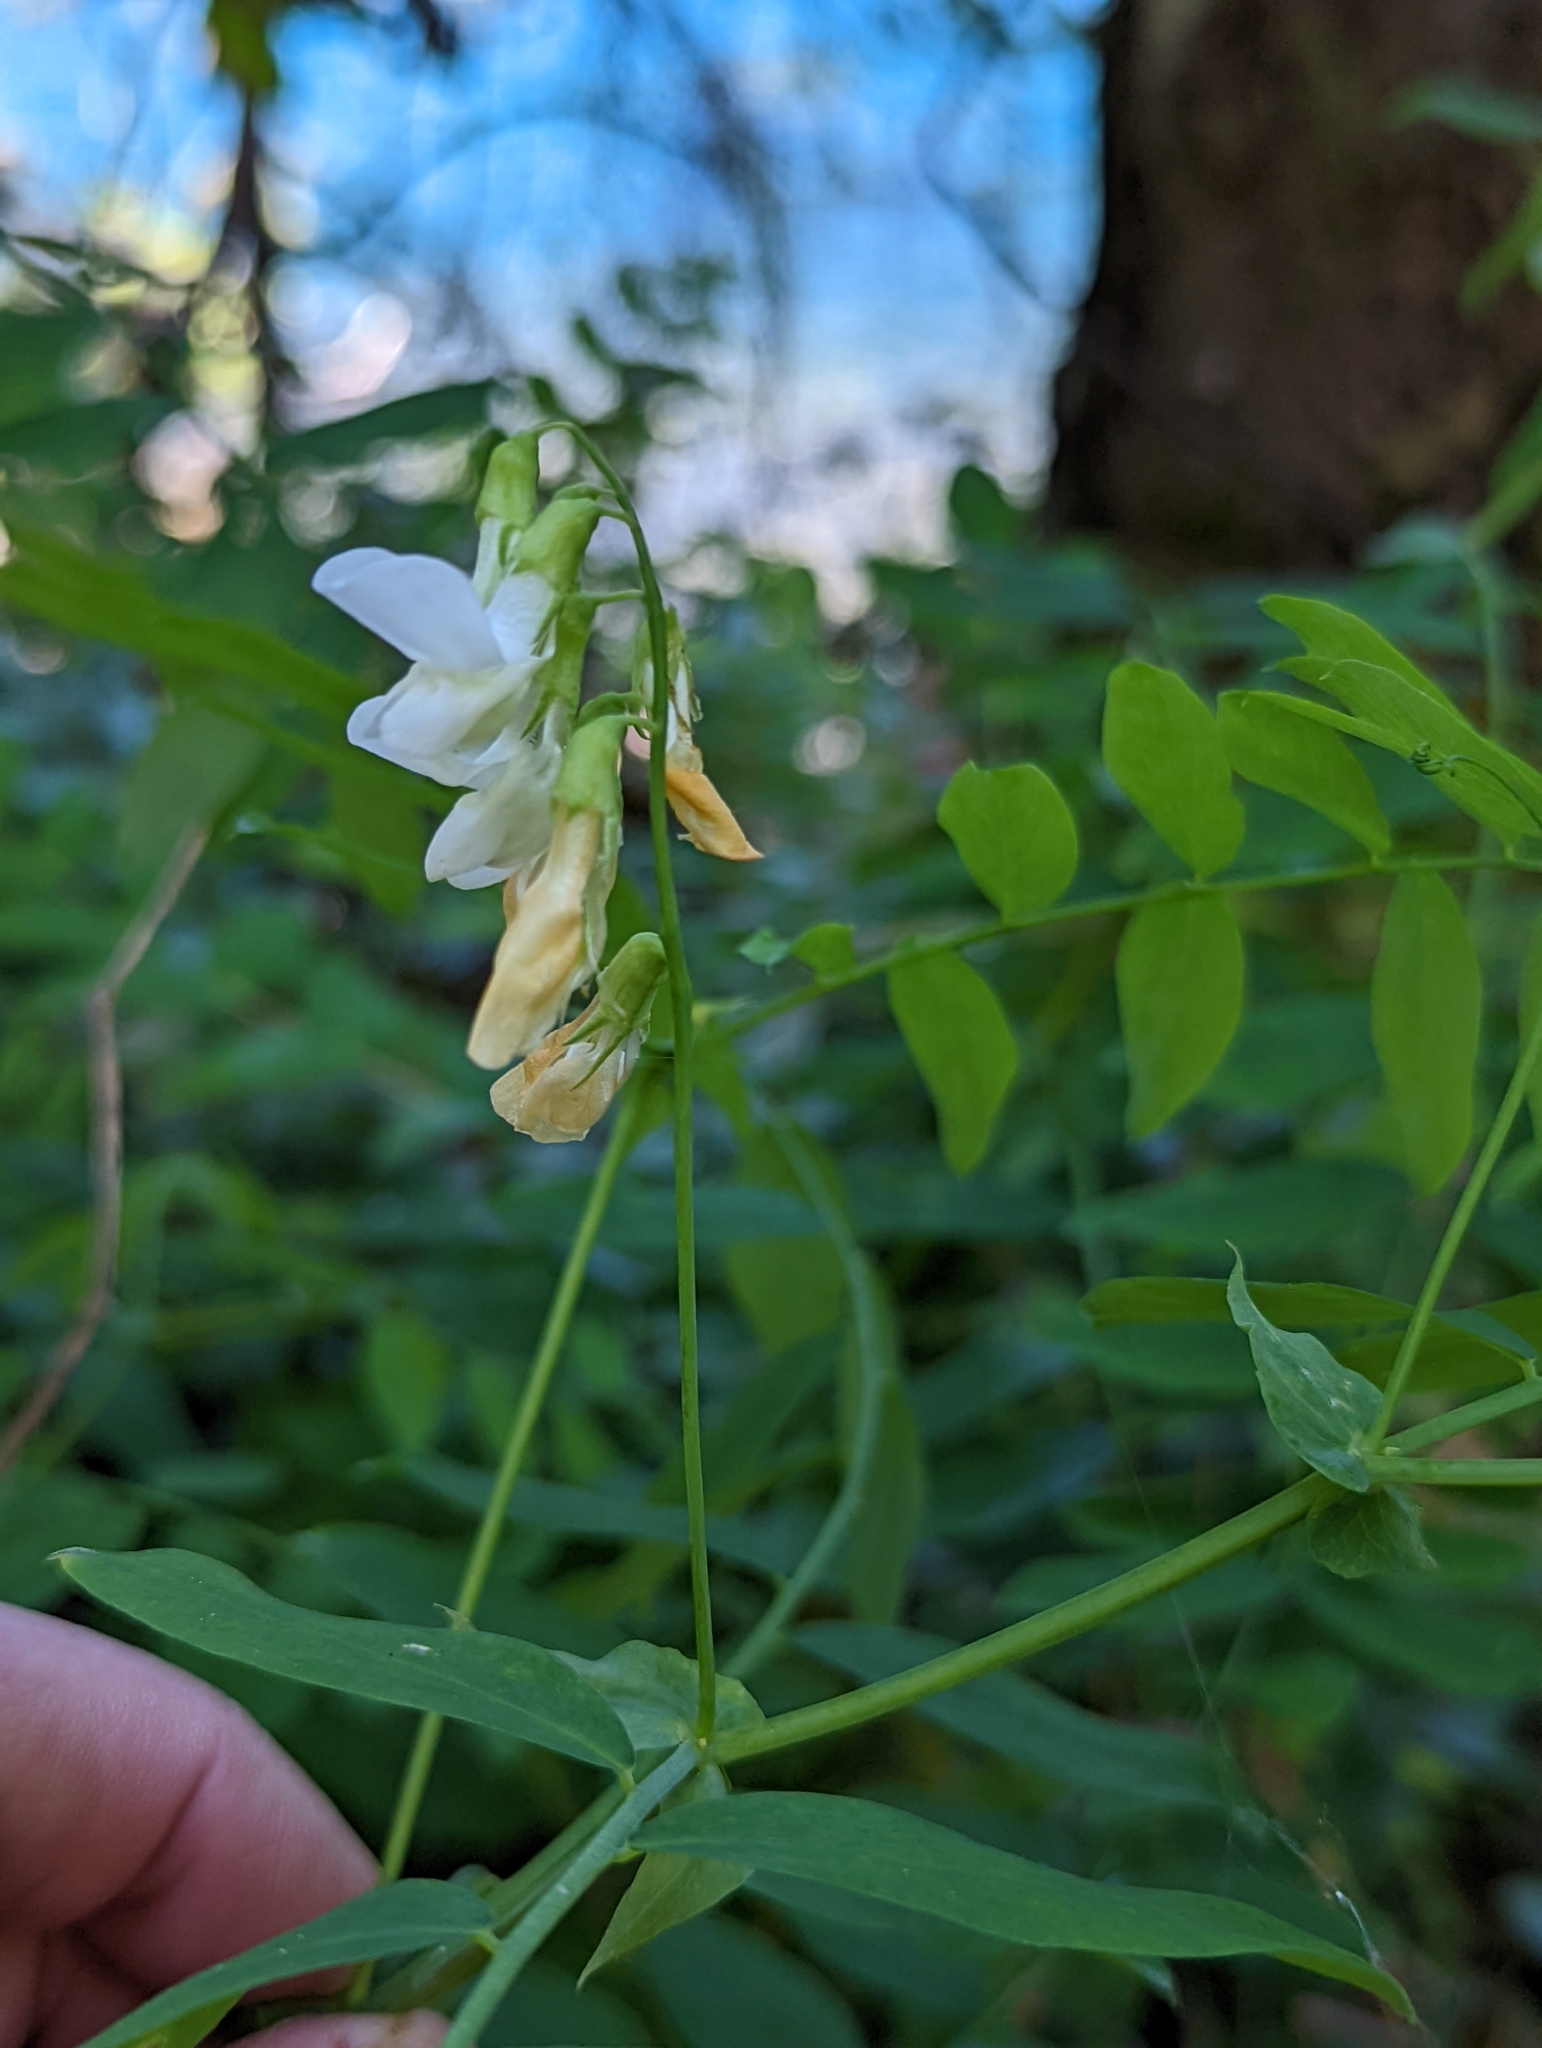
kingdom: Plantae
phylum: Tracheophyta
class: Magnoliopsida
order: Fabales
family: Fabaceae
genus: Lathyrus
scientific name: Lathyrus polyphyllus
